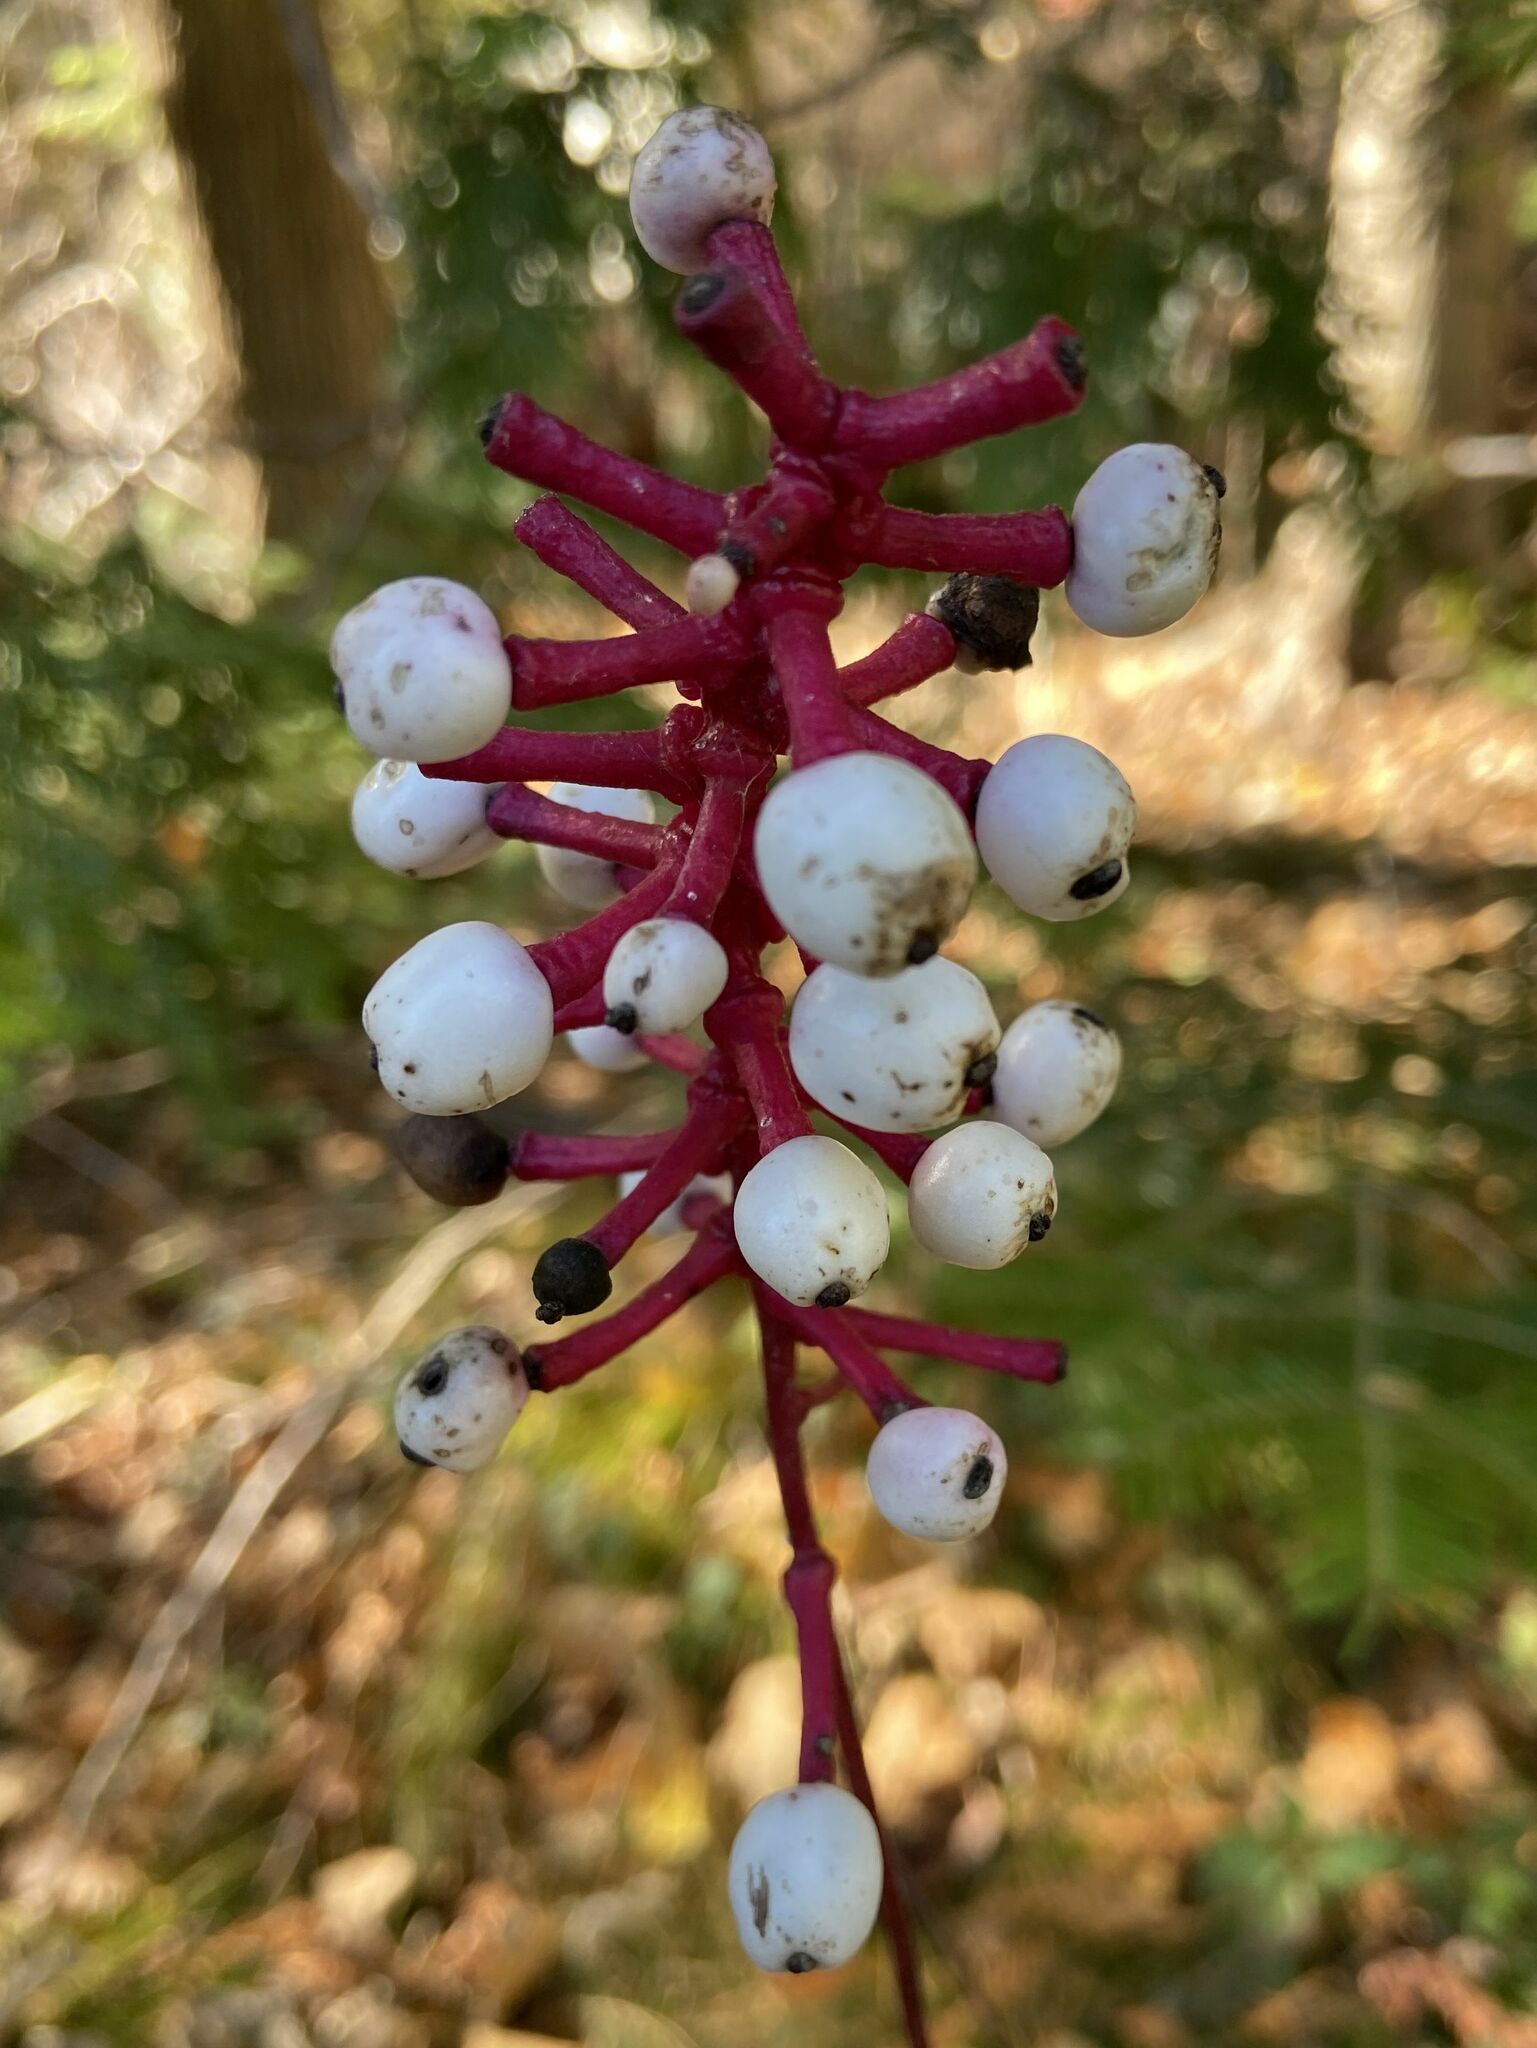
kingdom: Plantae
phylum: Tracheophyta
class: Magnoliopsida
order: Ranunculales
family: Ranunculaceae
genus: Actaea
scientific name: Actaea pachypoda
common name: Doll's-eyes
